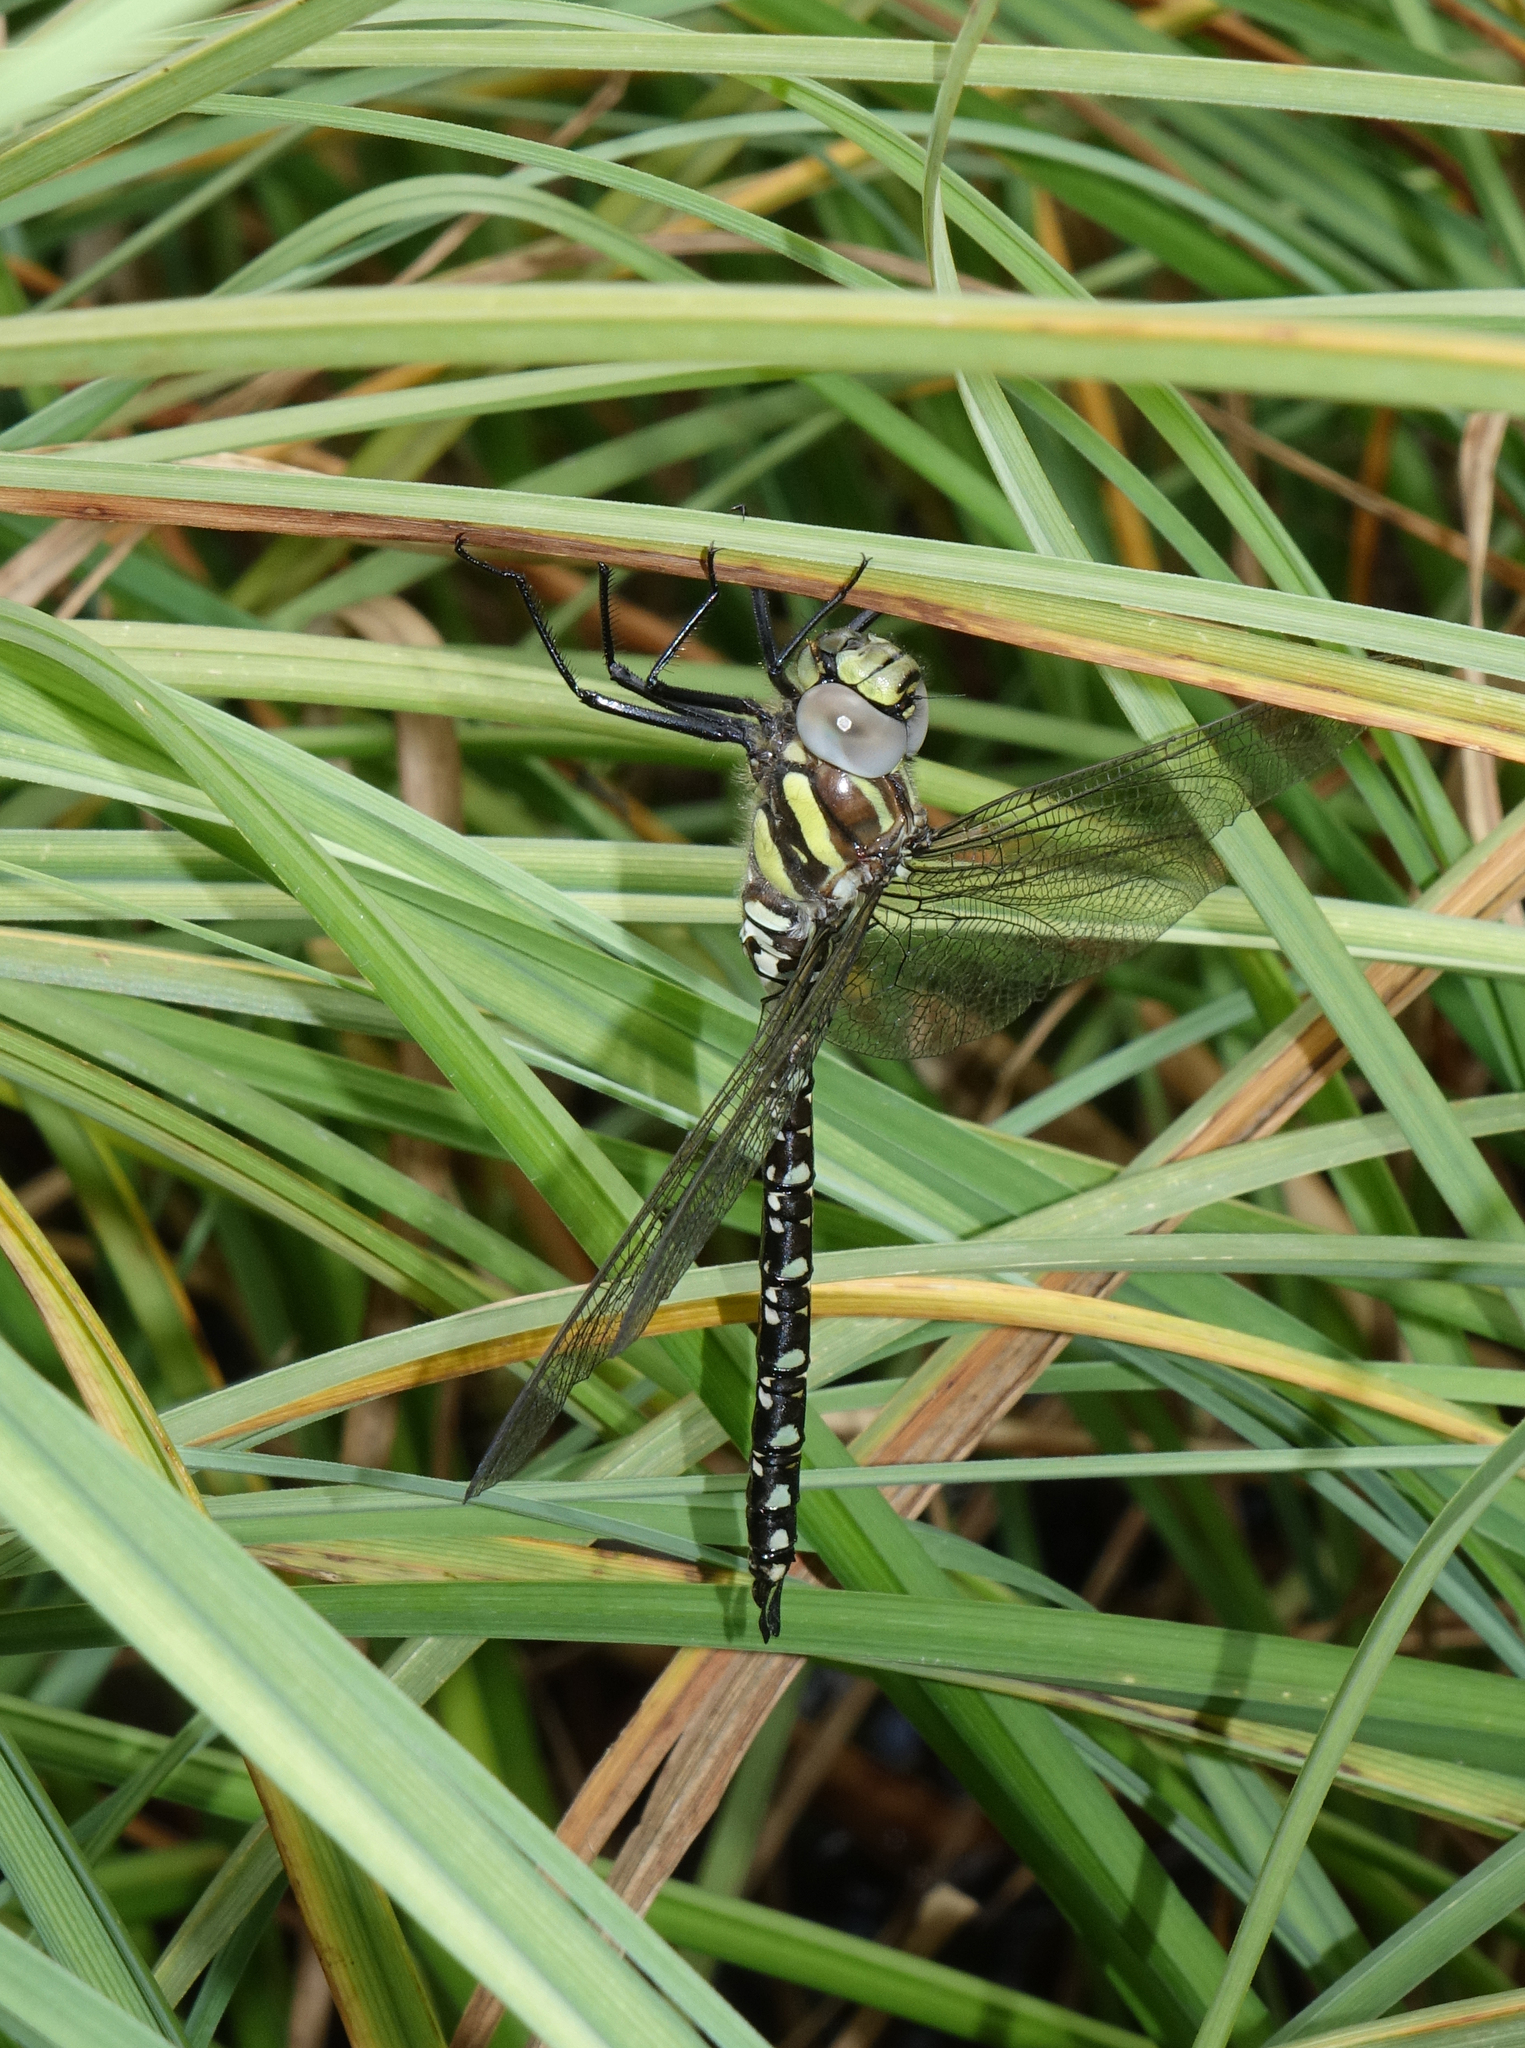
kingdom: Animalia
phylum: Arthropoda
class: Insecta
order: Odonata
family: Aeshnidae
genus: Aeshna
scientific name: Aeshna juncea
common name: Moorland hawker
